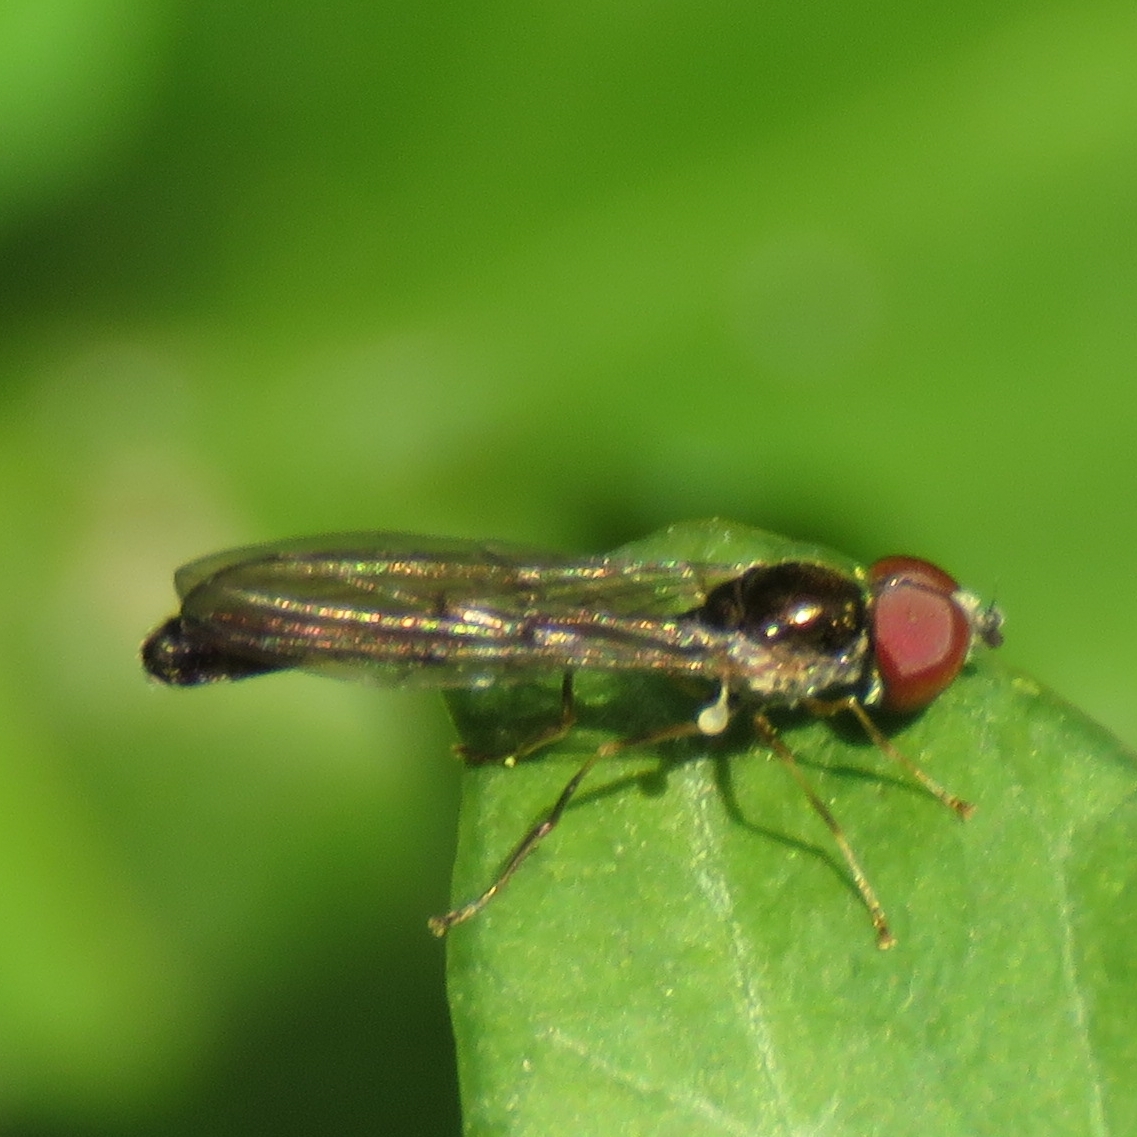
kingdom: Animalia
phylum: Arthropoda
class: Insecta
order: Diptera
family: Syrphidae
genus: Baccha
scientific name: Baccha elongata
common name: Common dainty
